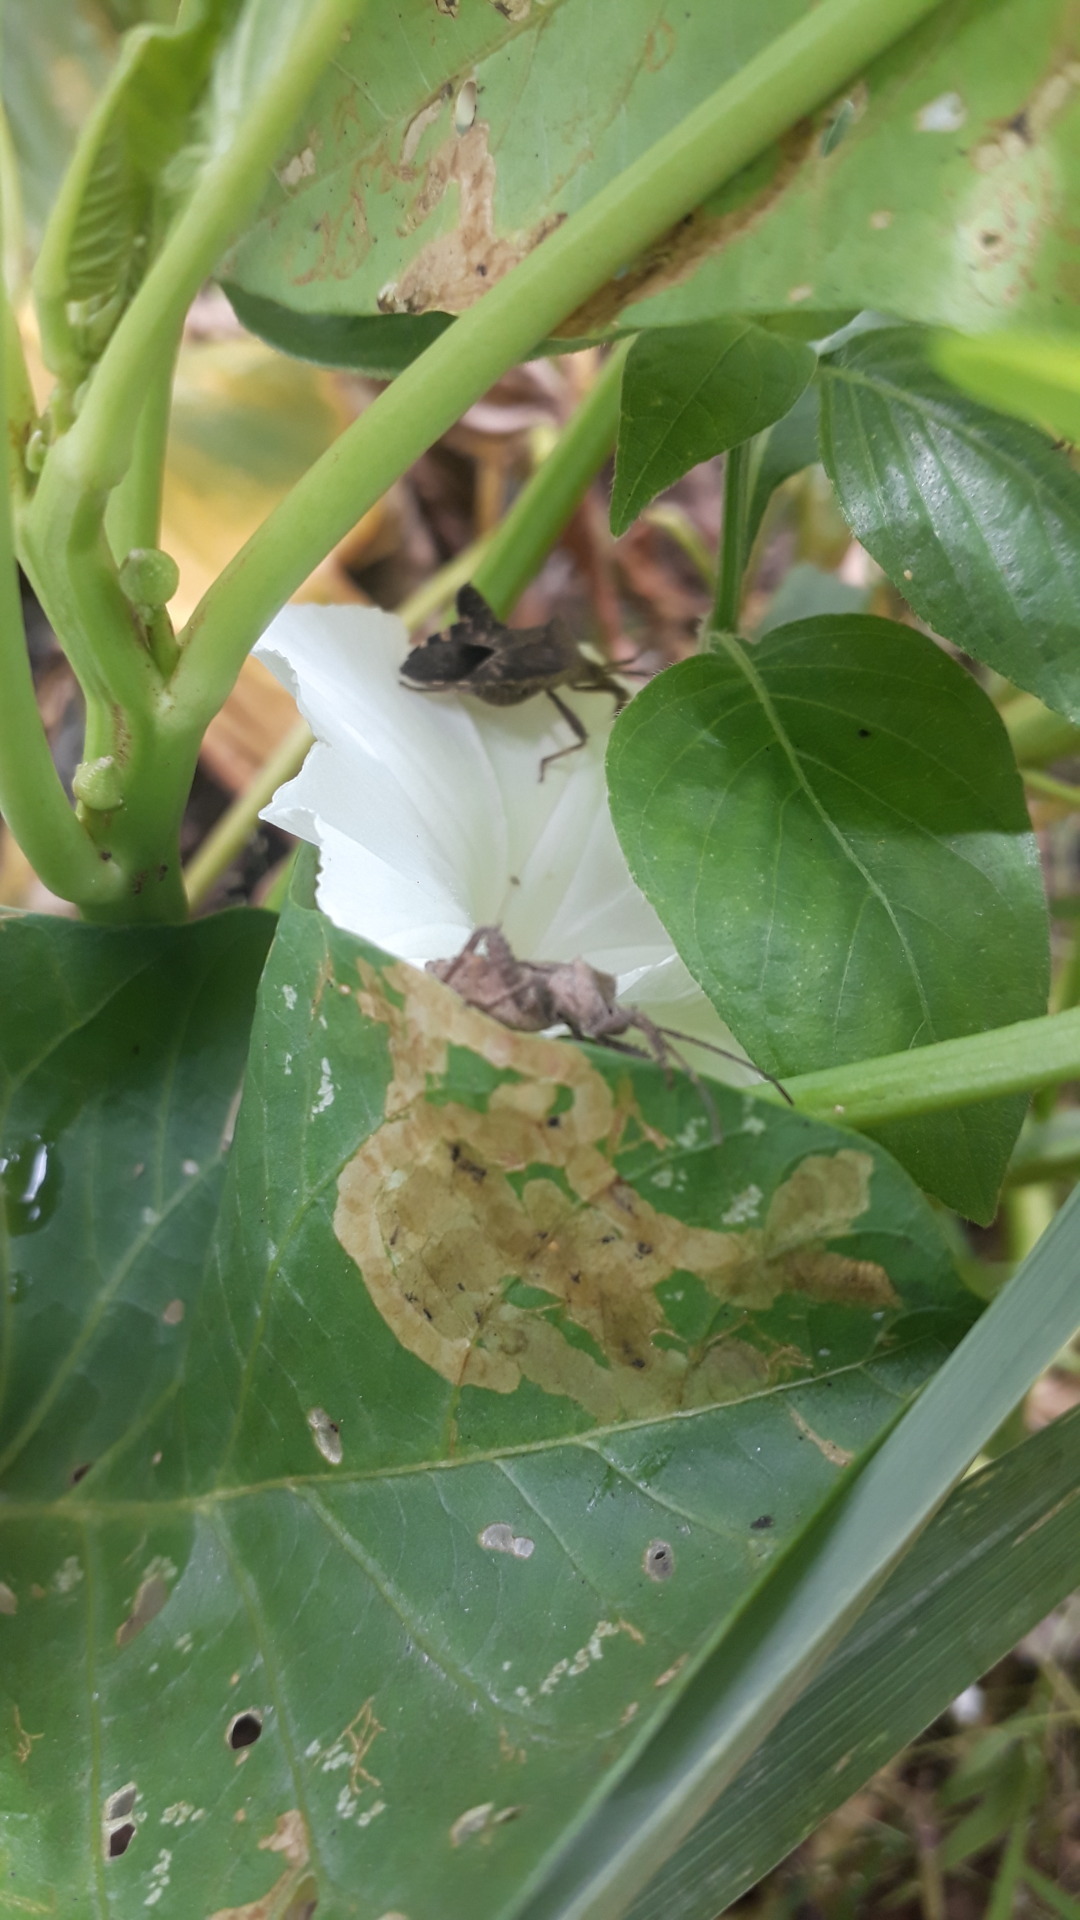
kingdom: Animalia
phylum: Arthropoda
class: Insecta
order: Hemiptera
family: Coreidae
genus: Physomerus
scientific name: Physomerus grossipes
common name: Squash bug
